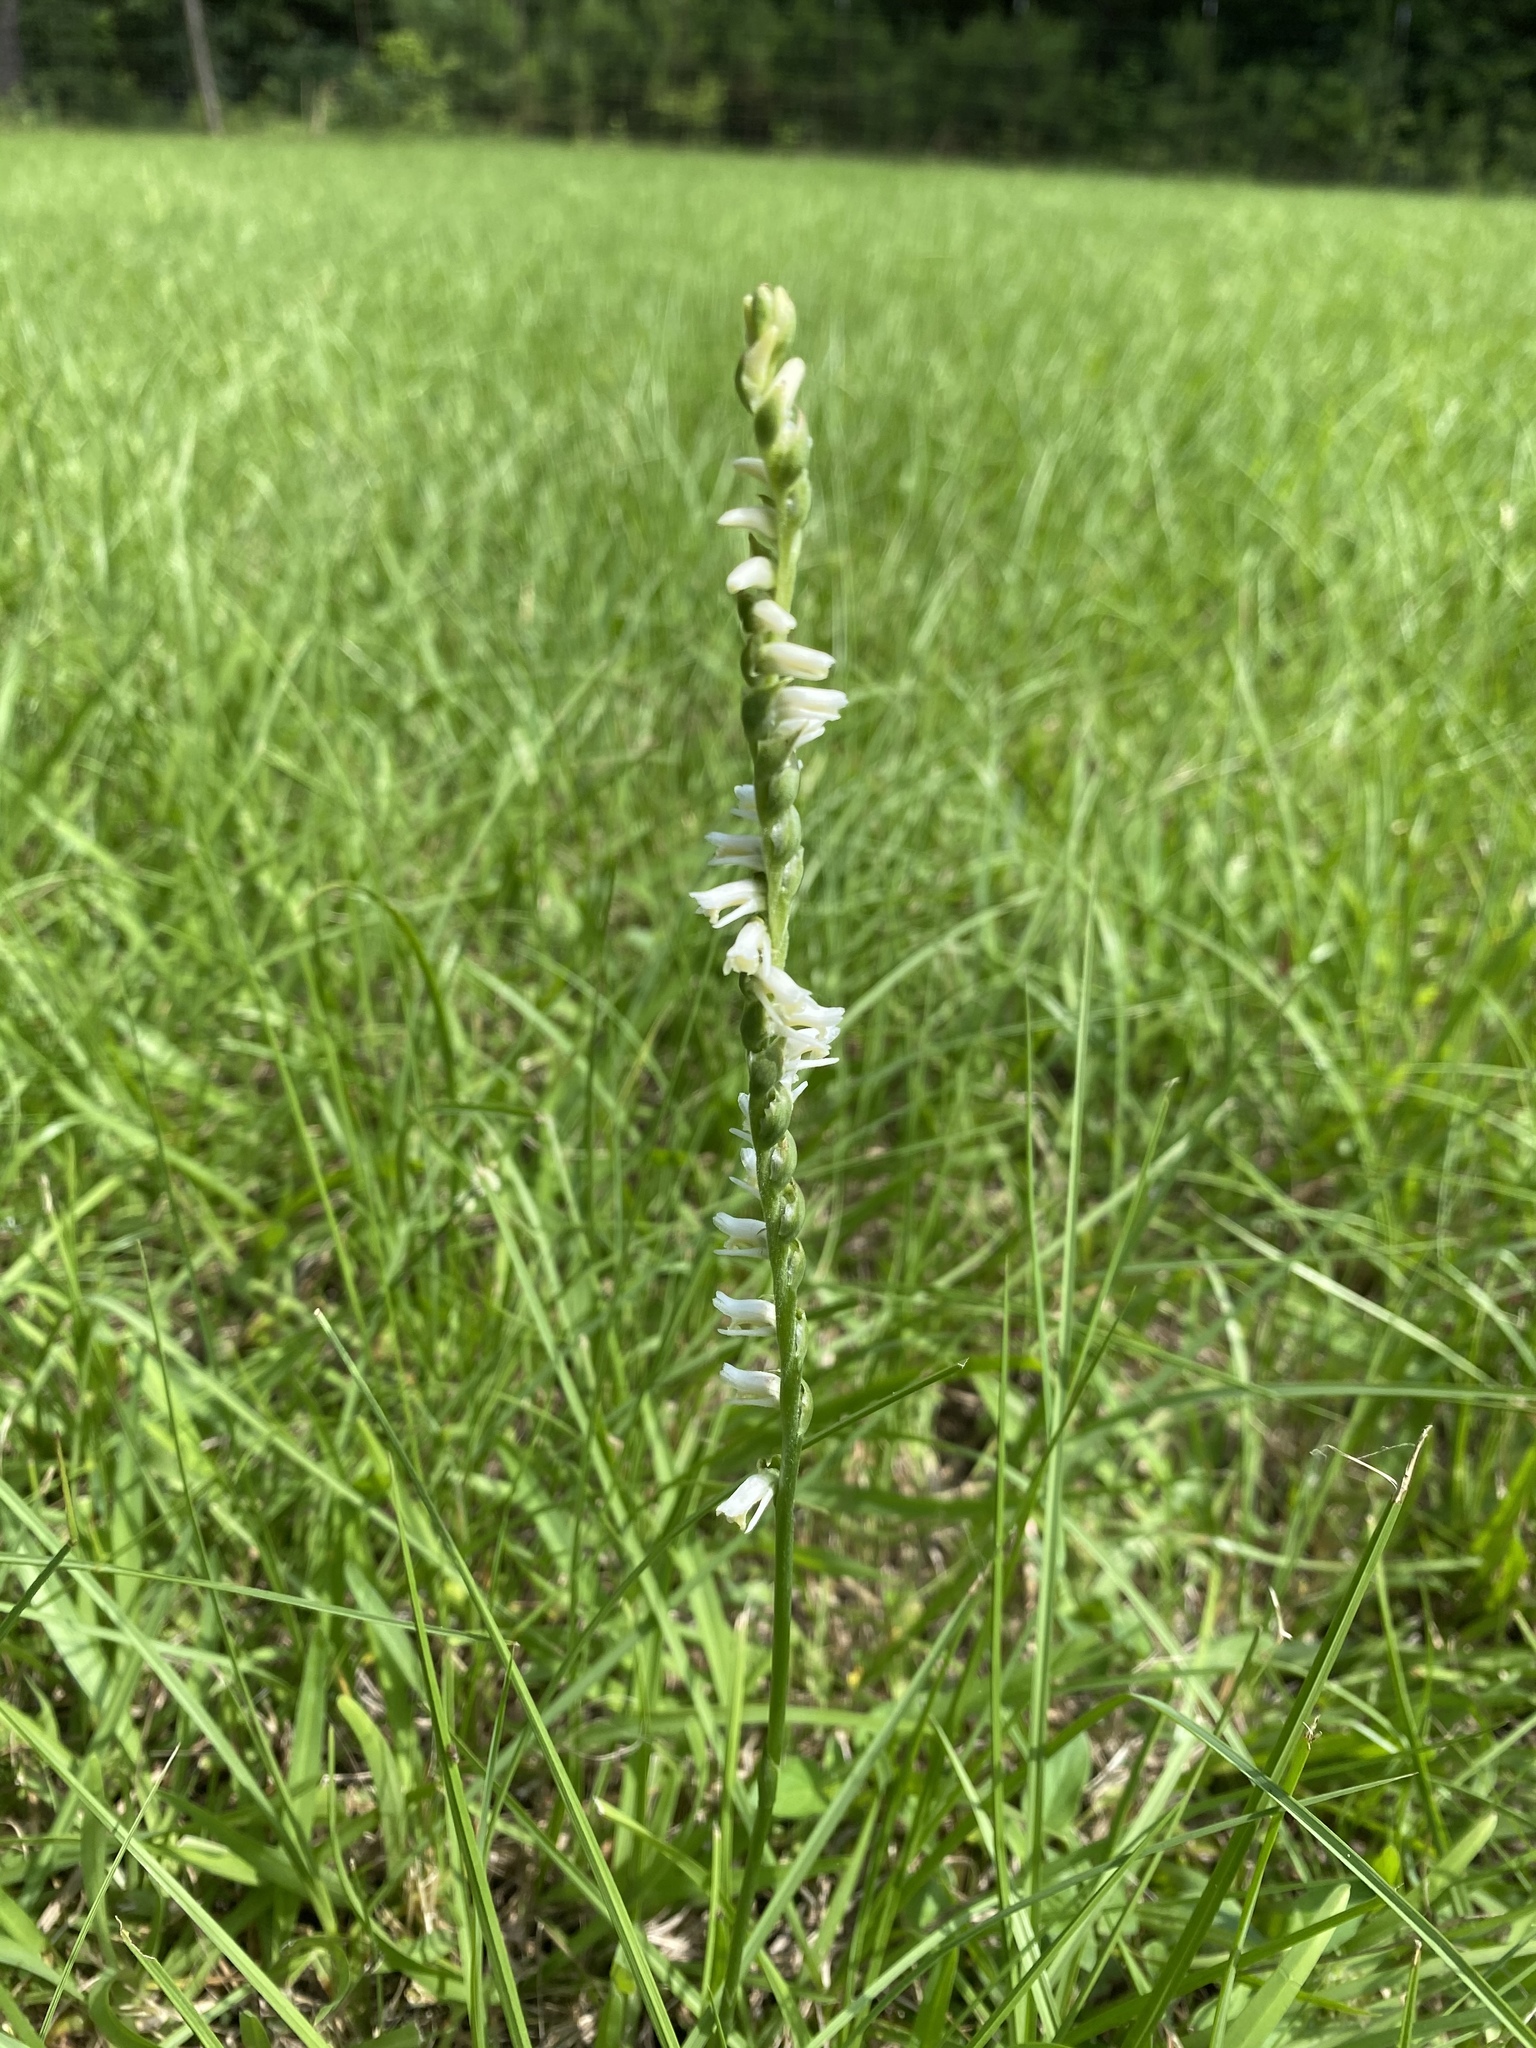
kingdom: Plantae
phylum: Tracheophyta
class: Liliopsida
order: Asparagales
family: Orchidaceae
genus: Spiranthes
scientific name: Spiranthes vernalis
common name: Spring ladies'-tresses
